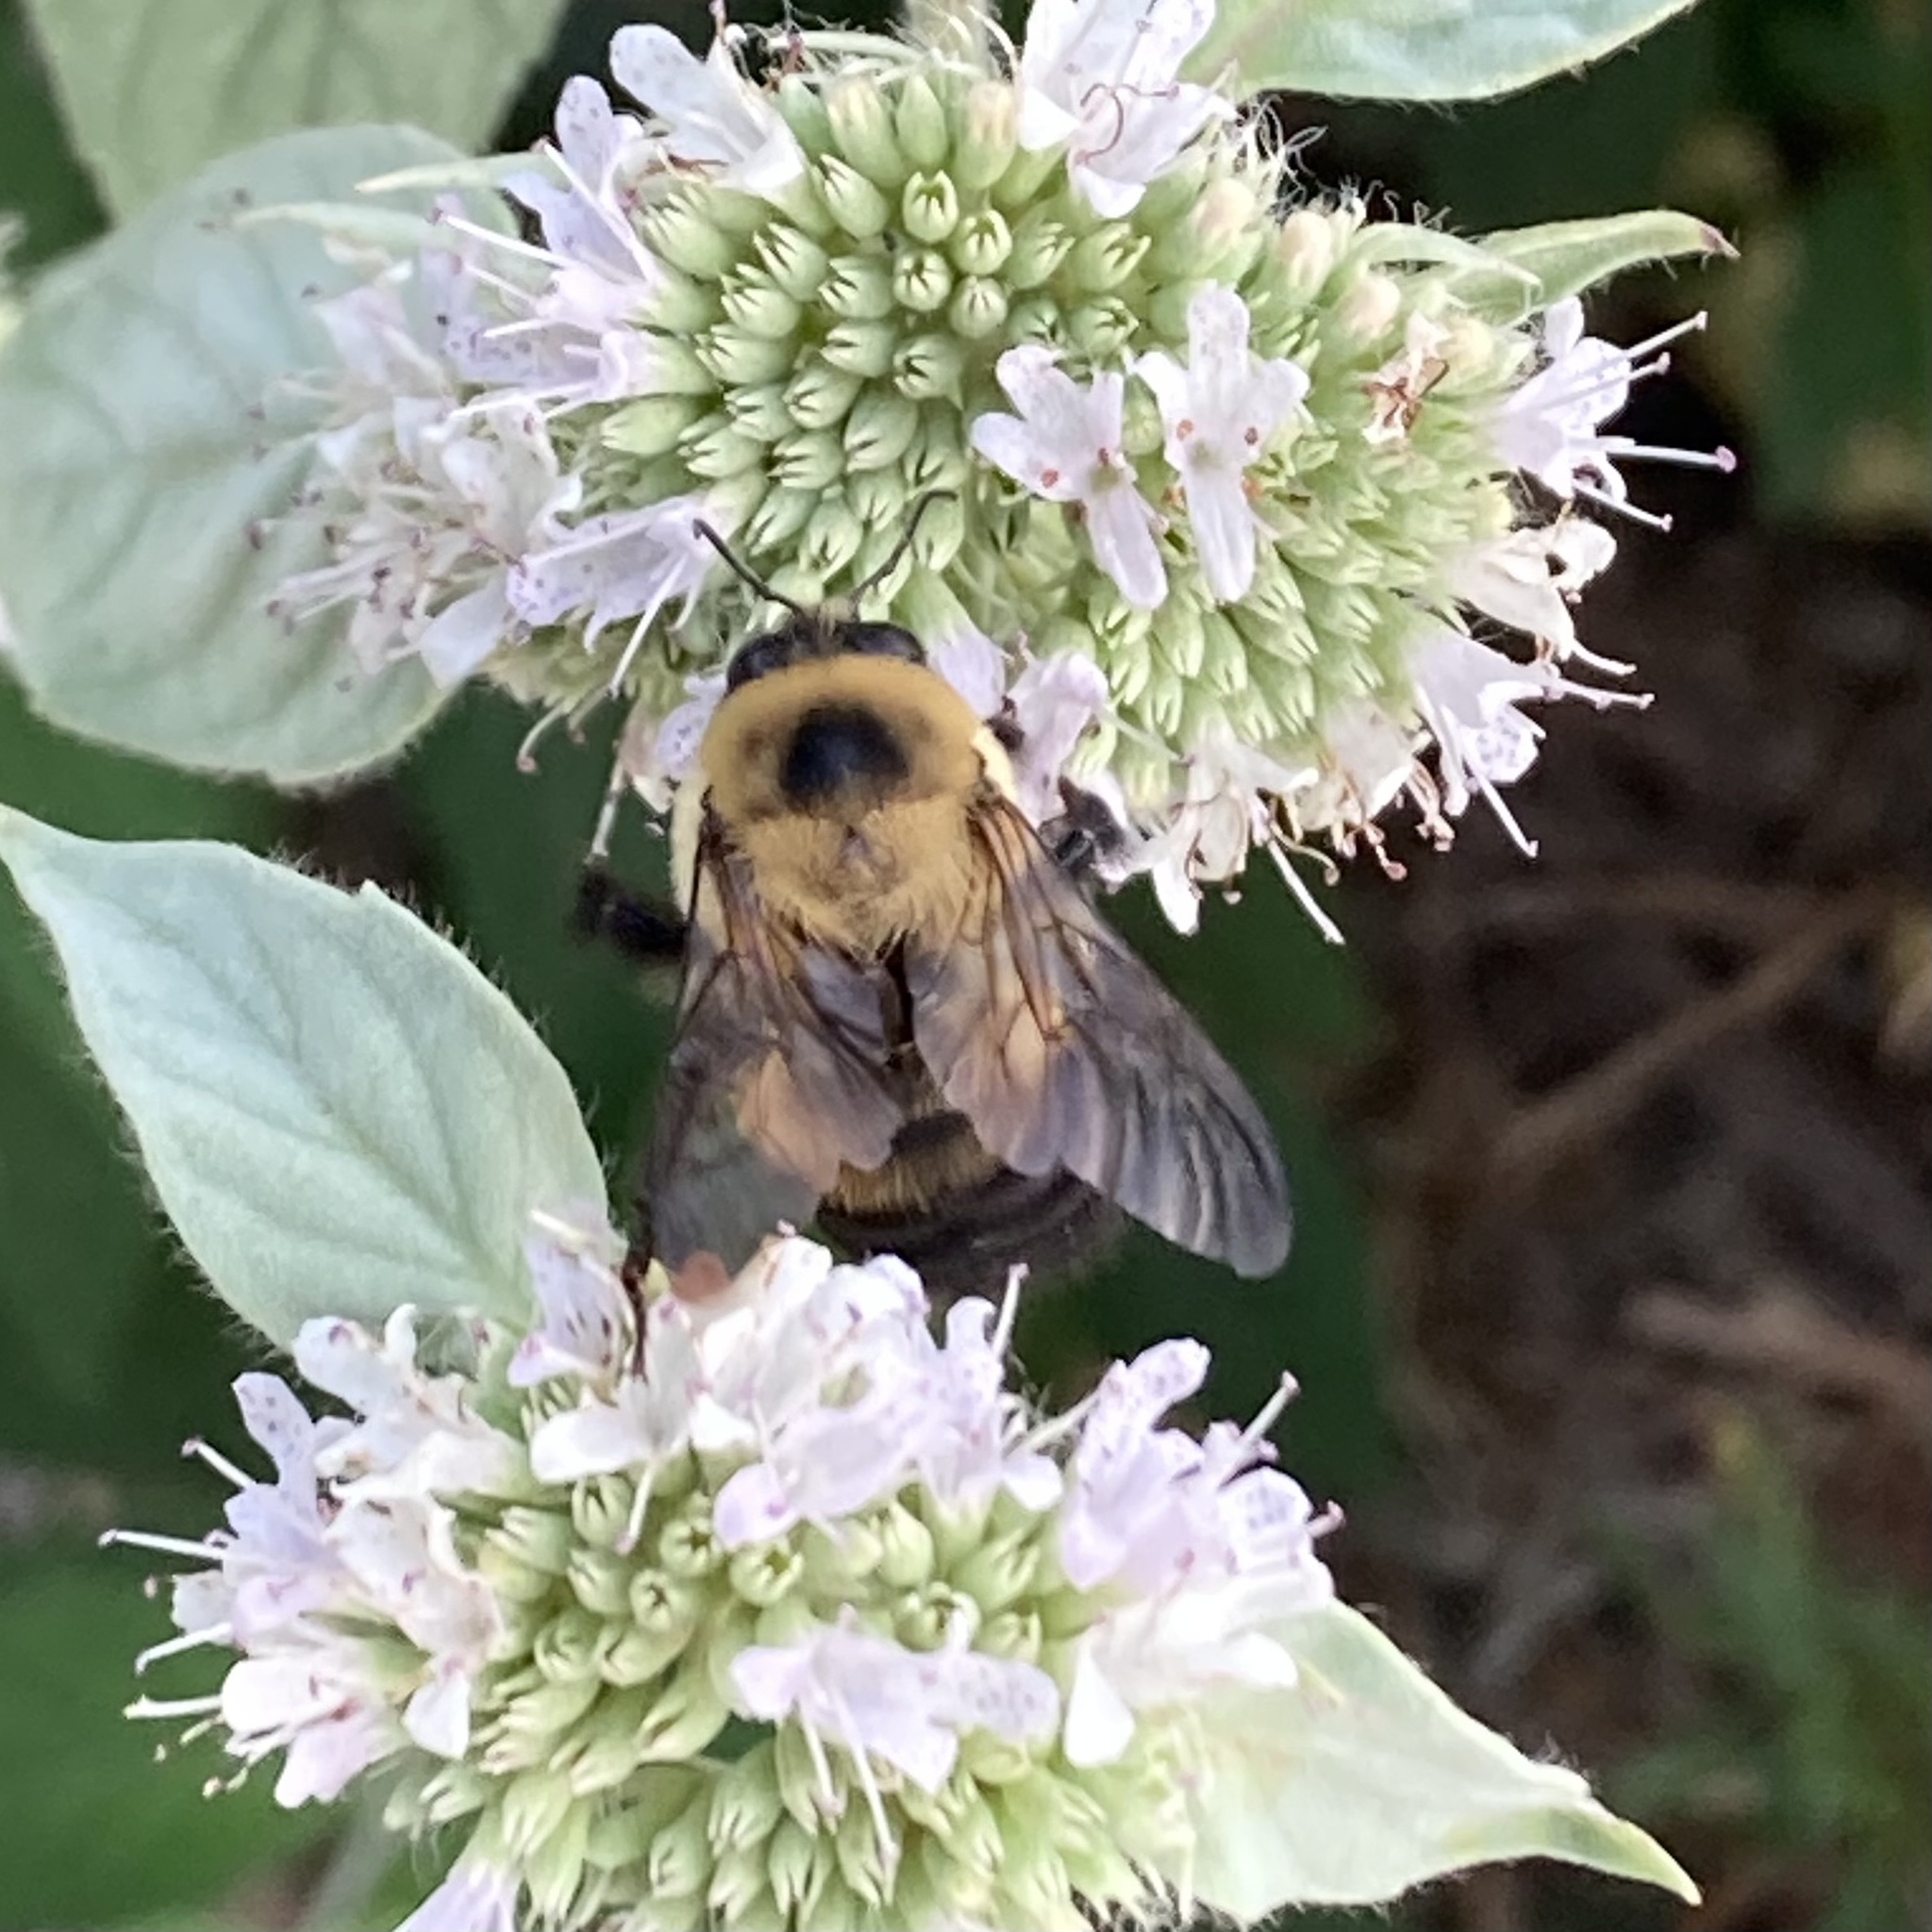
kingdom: Animalia
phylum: Arthropoda
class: Insecta
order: Hymenoptera
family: Apidae
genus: Bombus
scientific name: Bombus griseocollis
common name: Brown-belted bumble bee
